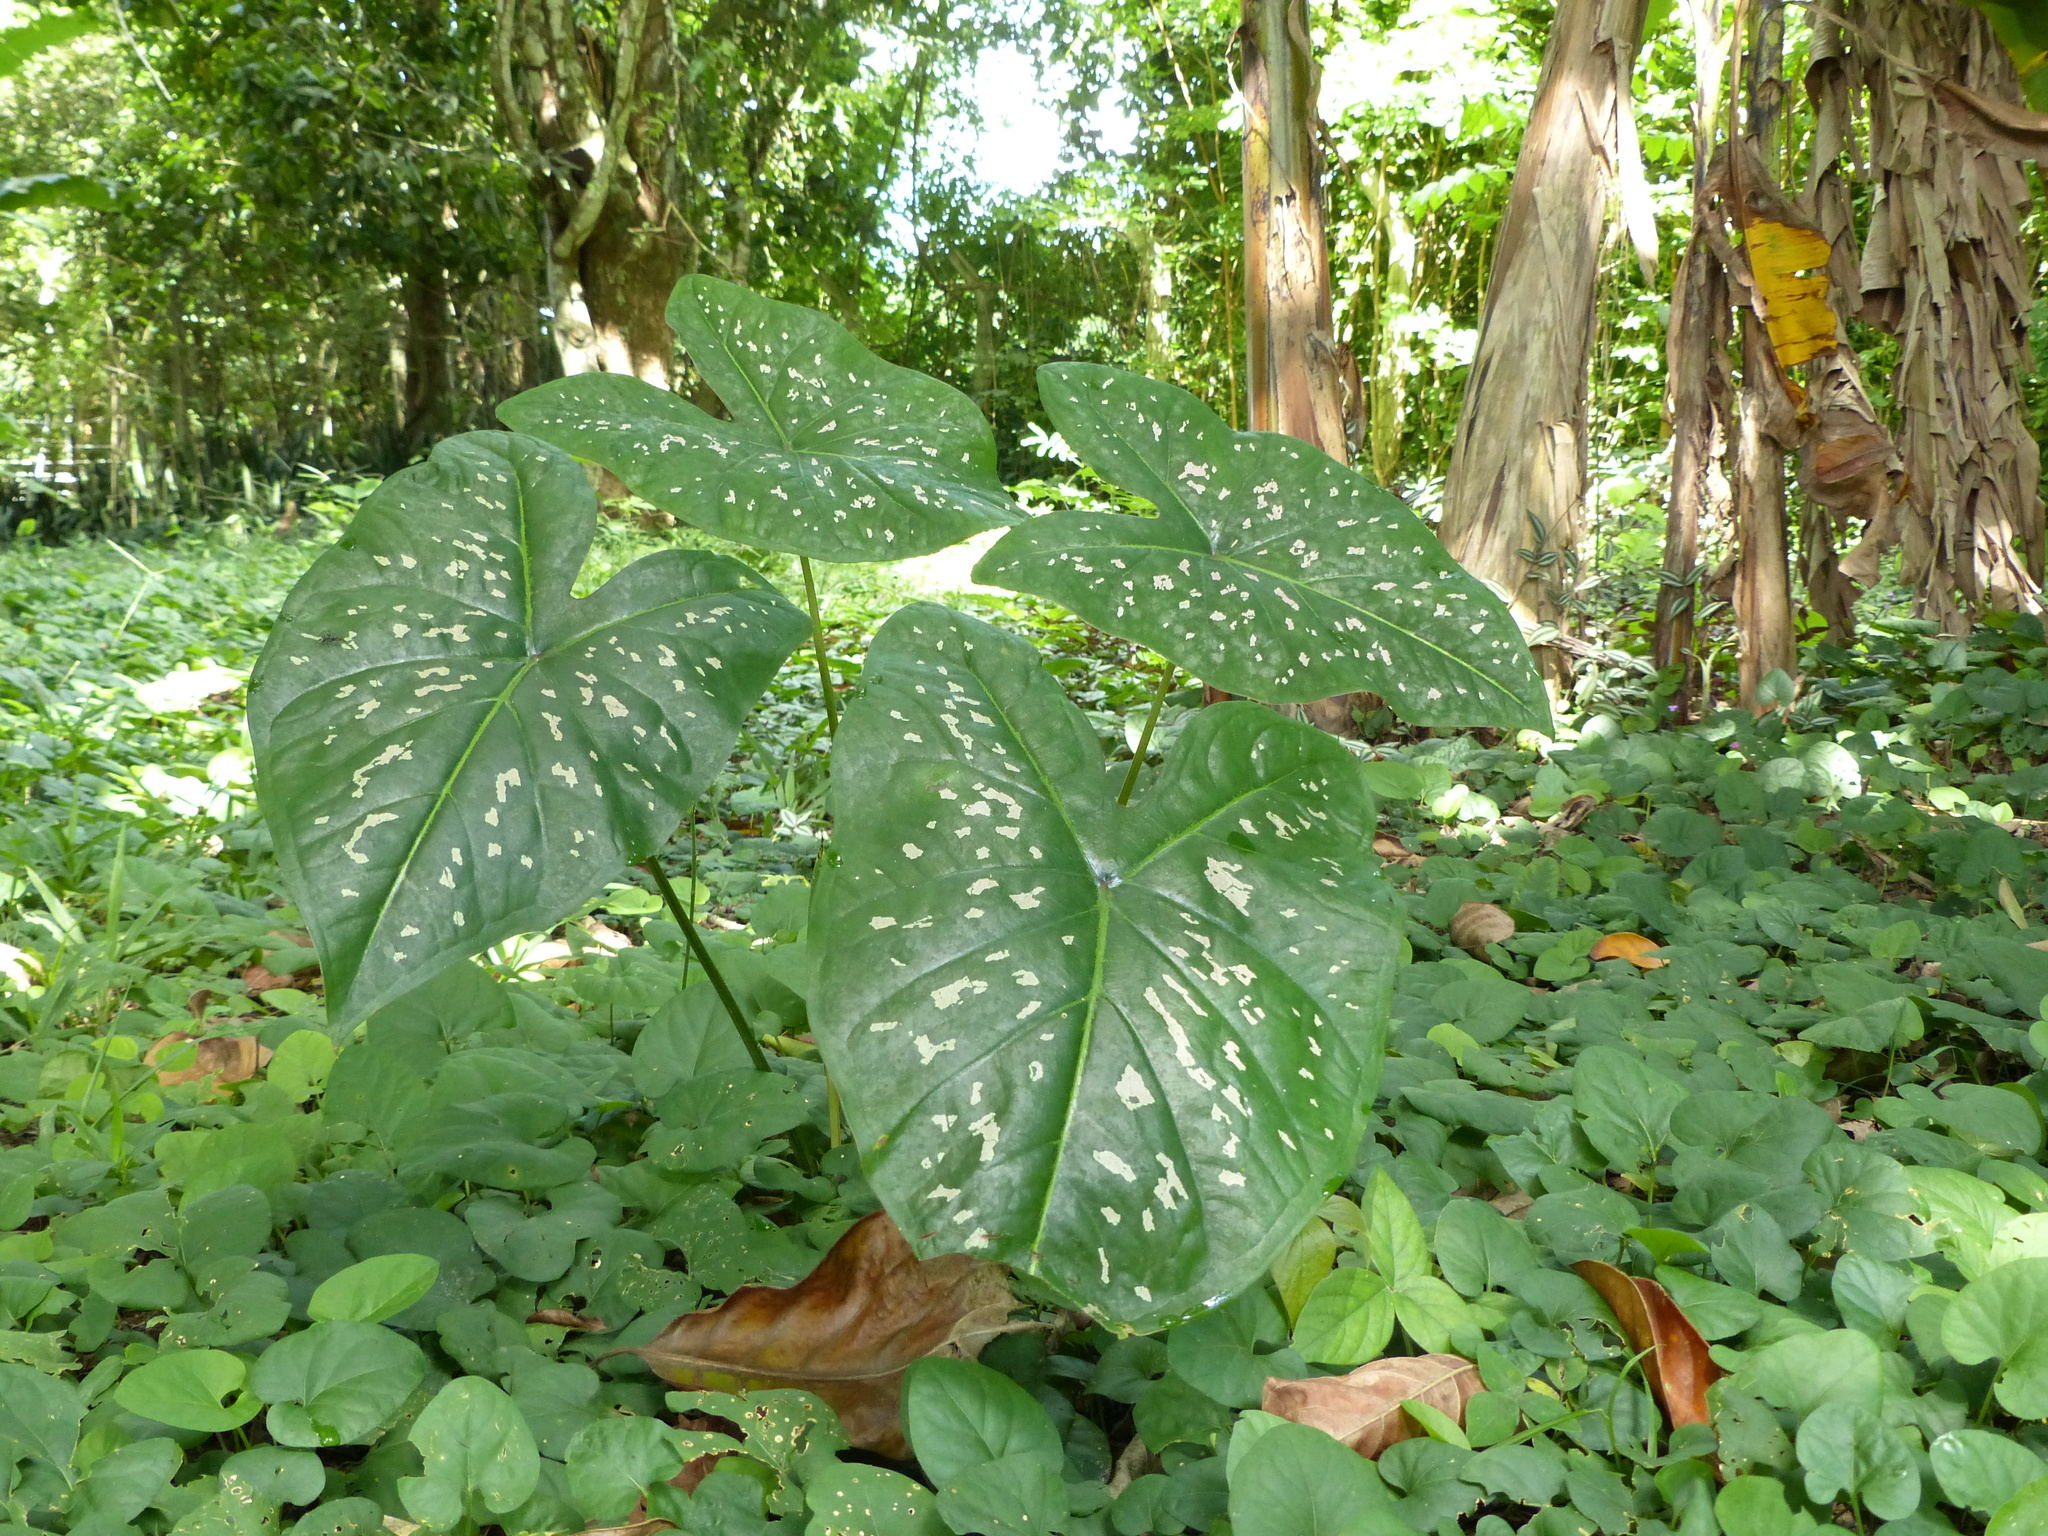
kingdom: Plantae
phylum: Tracheophyta
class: Liliopsida
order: Alismatales
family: Araceae
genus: Caladium
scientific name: Caladium bicolor
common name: Artist's pallet
